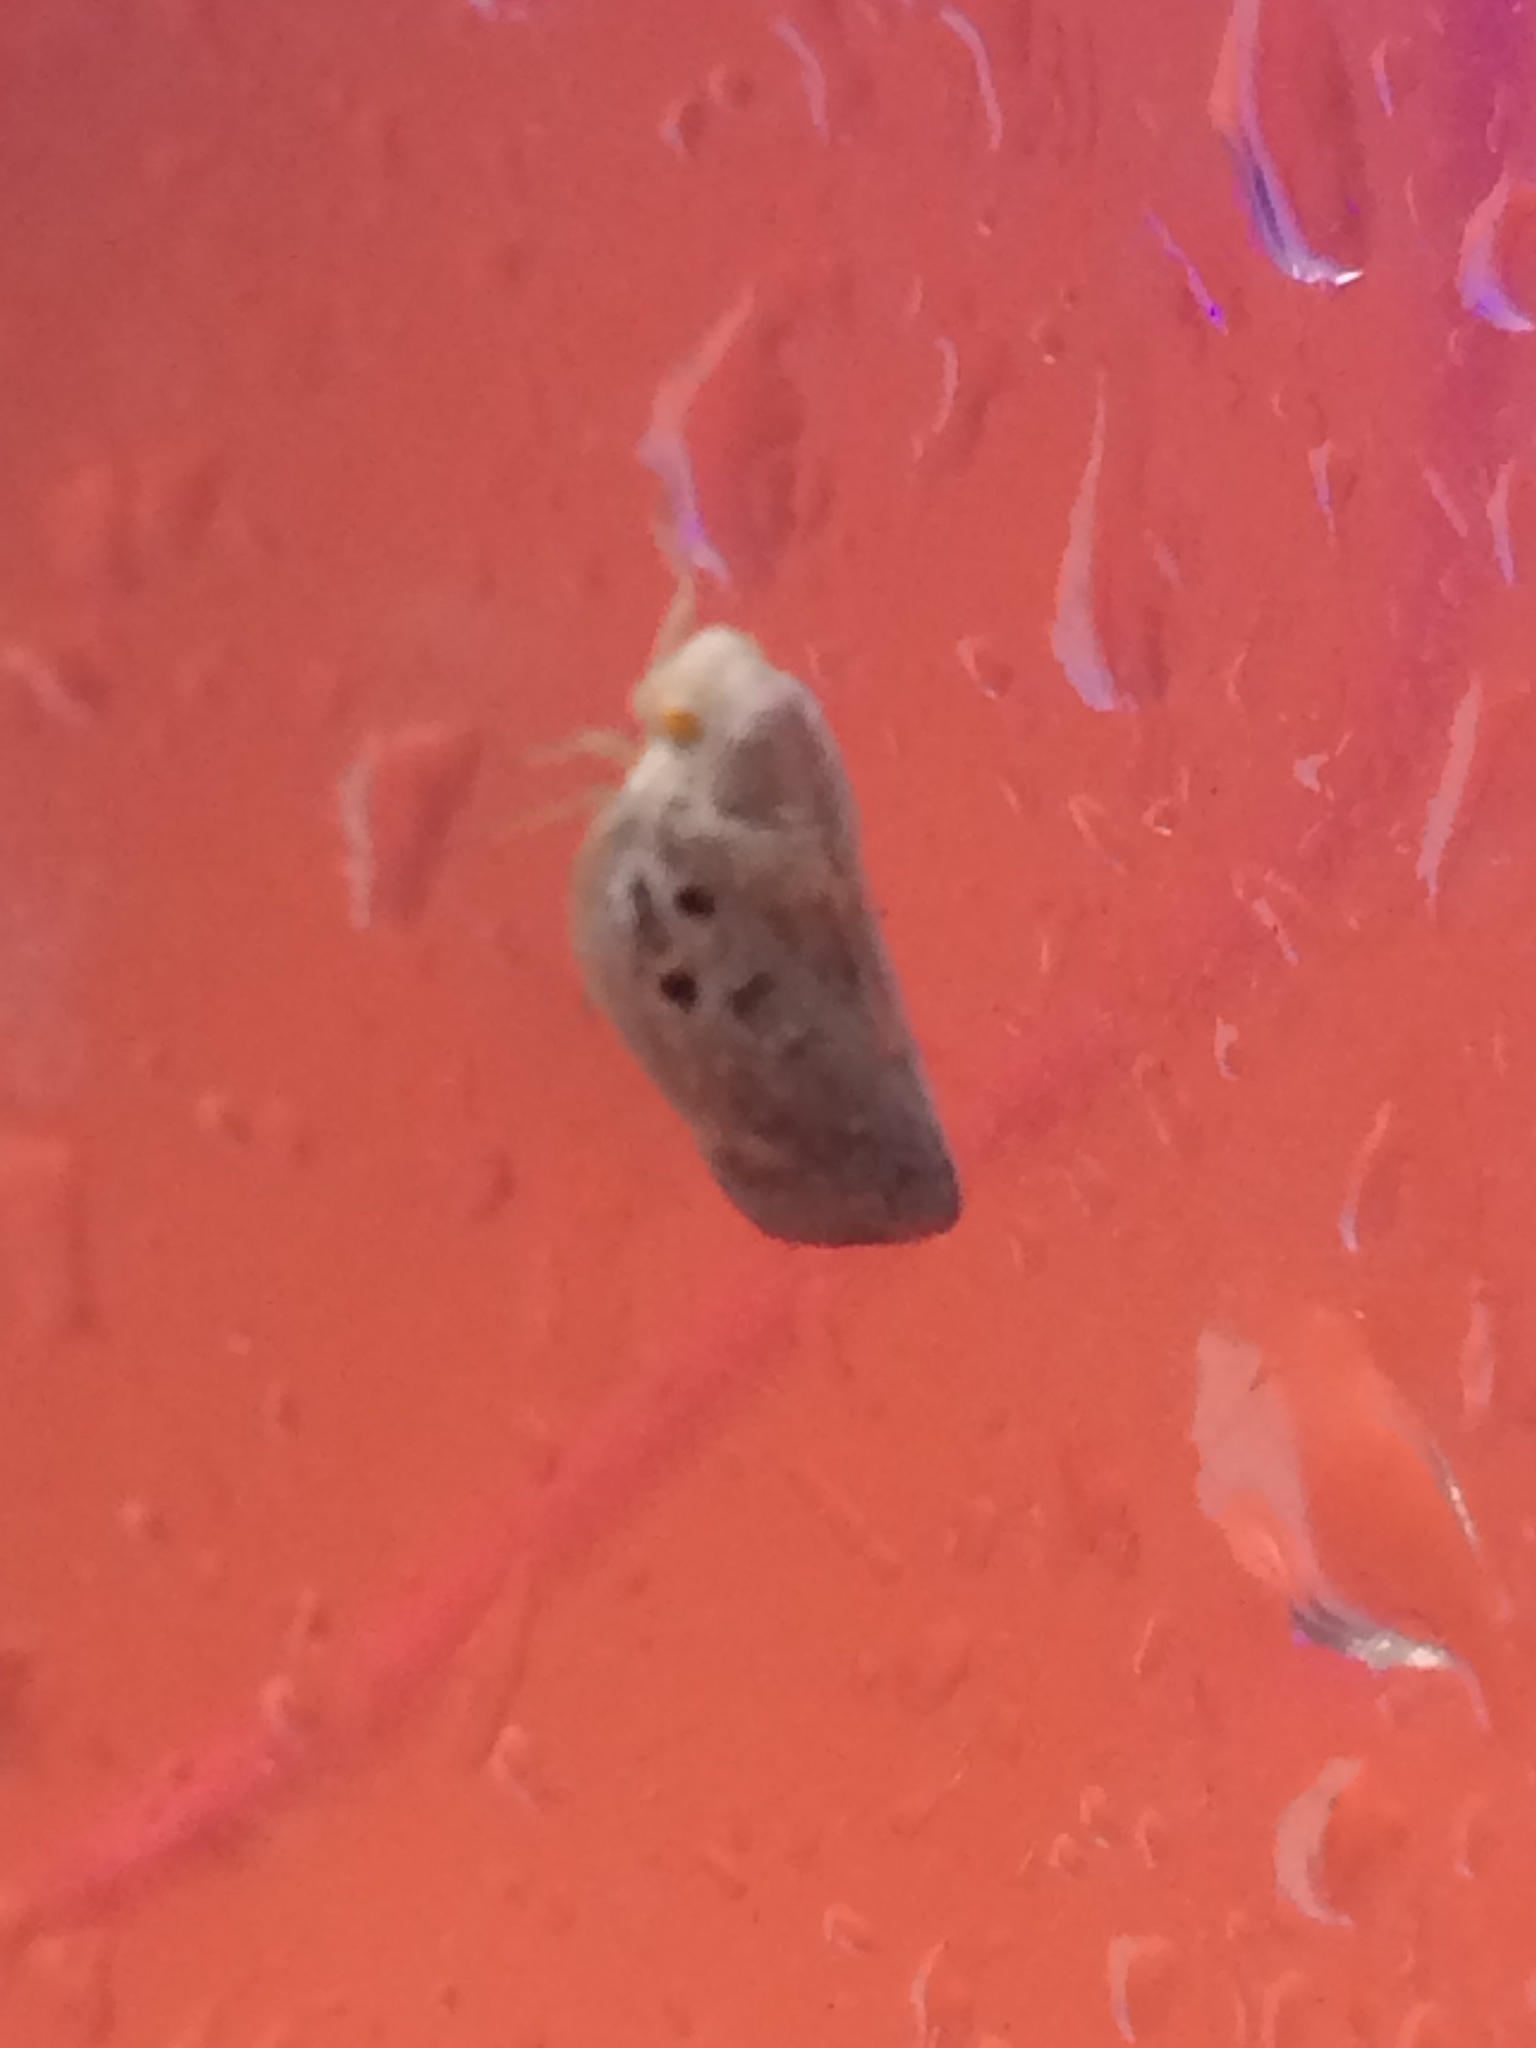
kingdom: Animalia
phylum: Arthropoda
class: Insecta
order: Hemiptera
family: Flatidae
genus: Metcalfa
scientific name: Metcalfa pruinosa
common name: Citrus flatid planthopper
